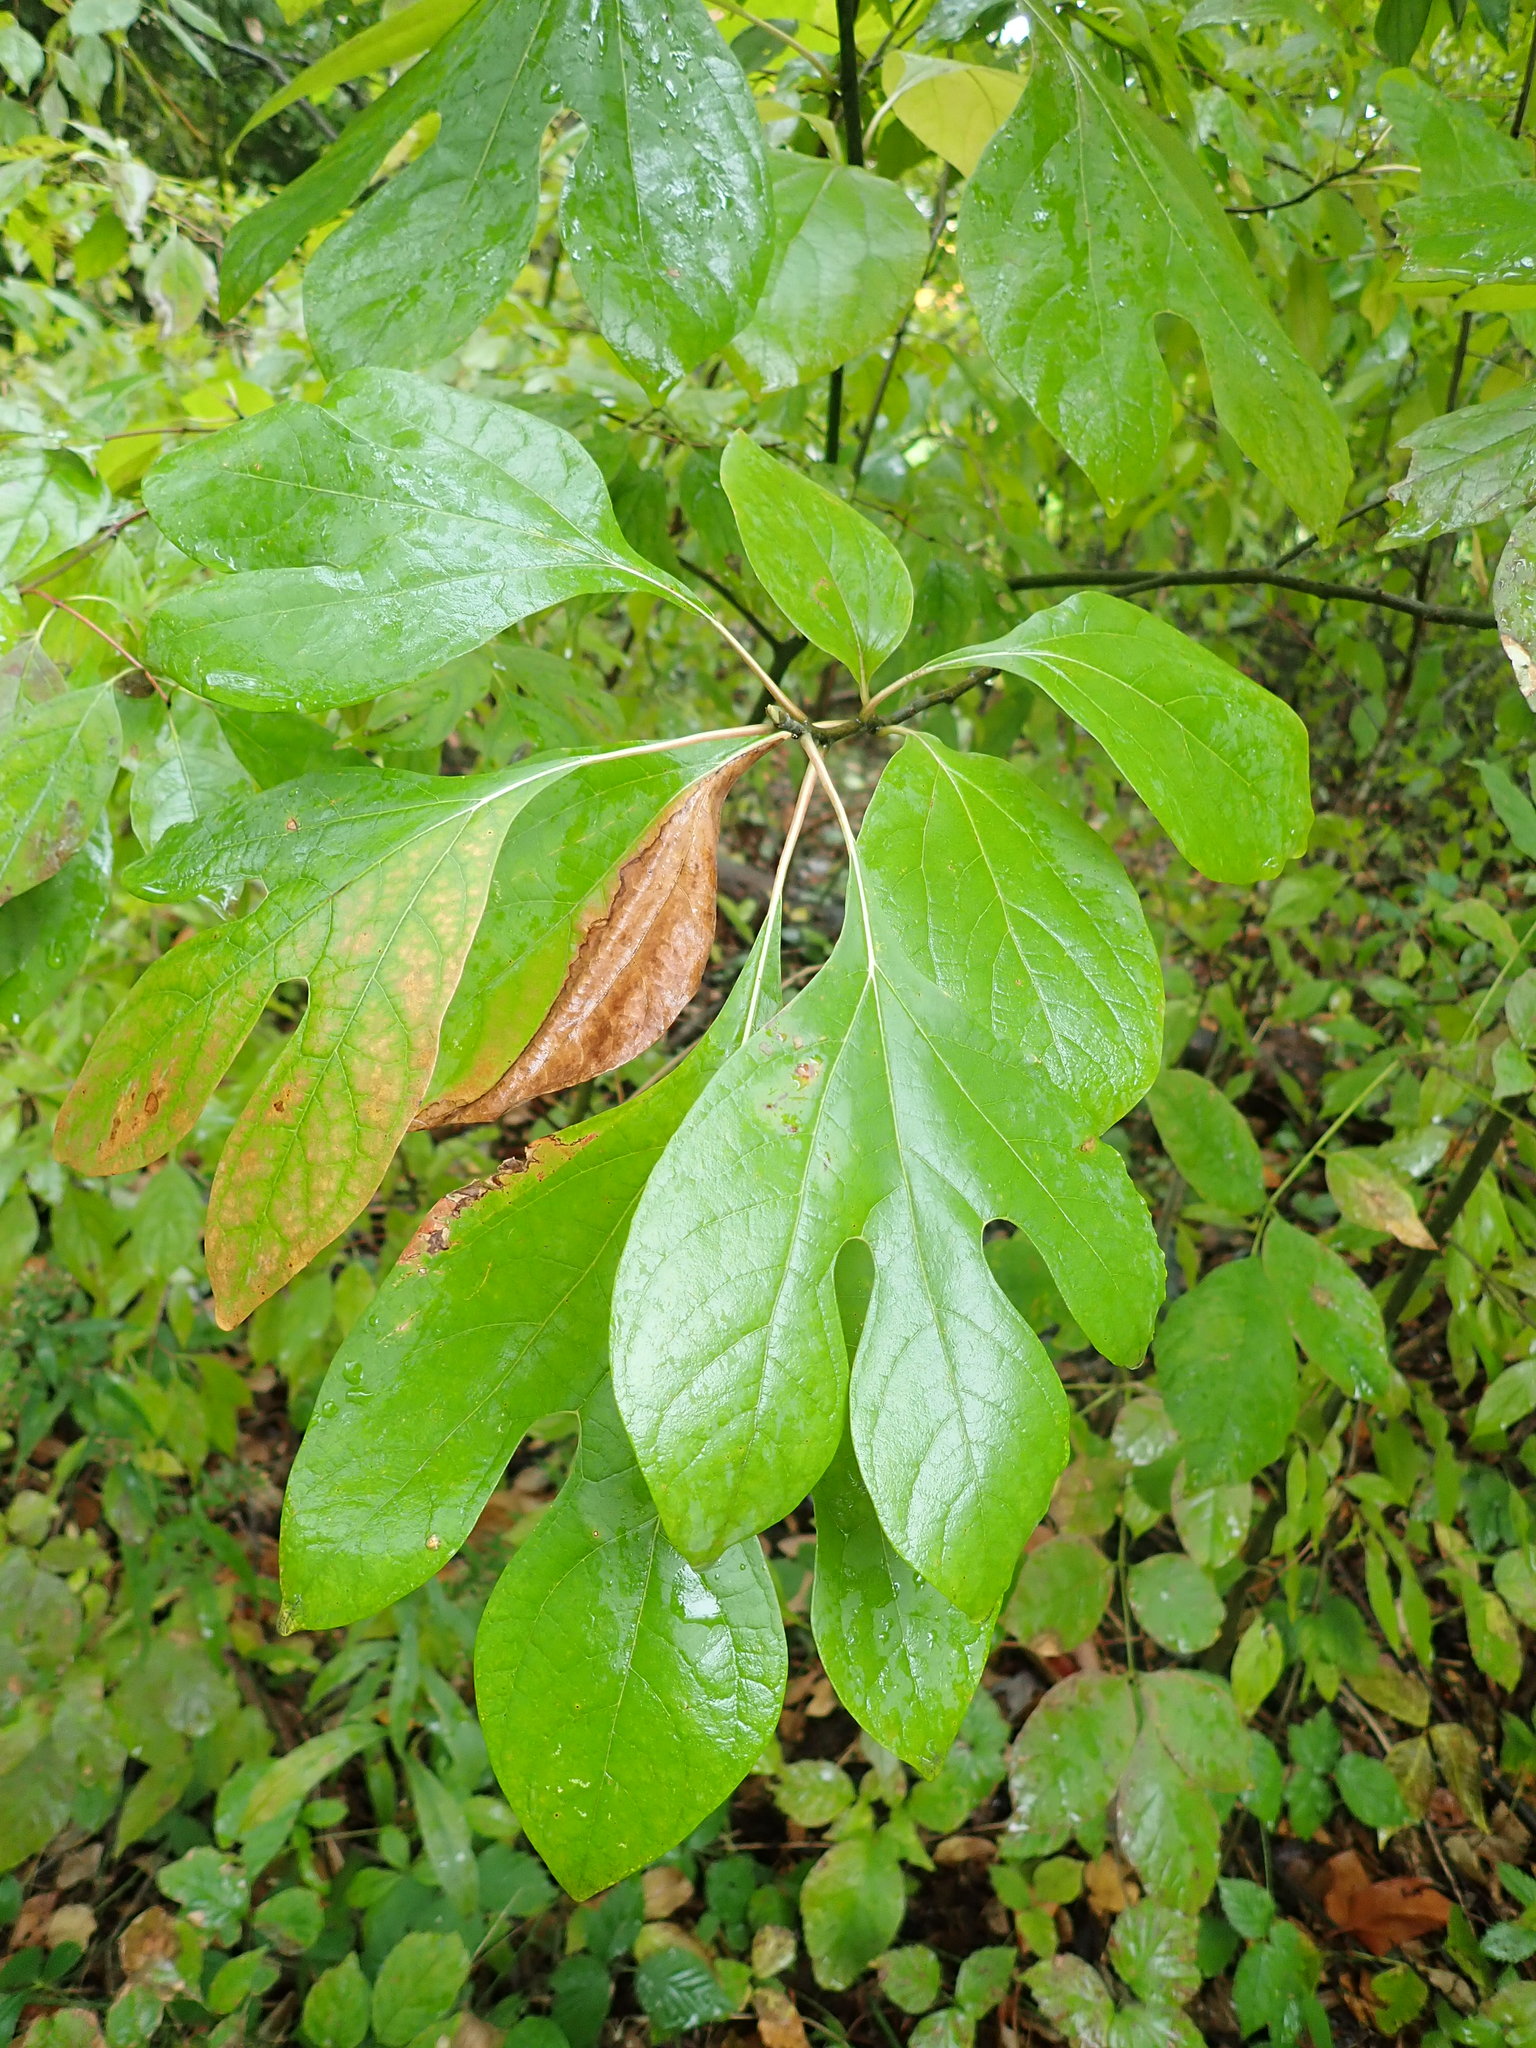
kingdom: Plantae
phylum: Tracheophyta
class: Magnoliopsida
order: Laurales
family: Lauraceae
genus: Sassafras
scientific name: Sassafras albidum
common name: Sassafras
